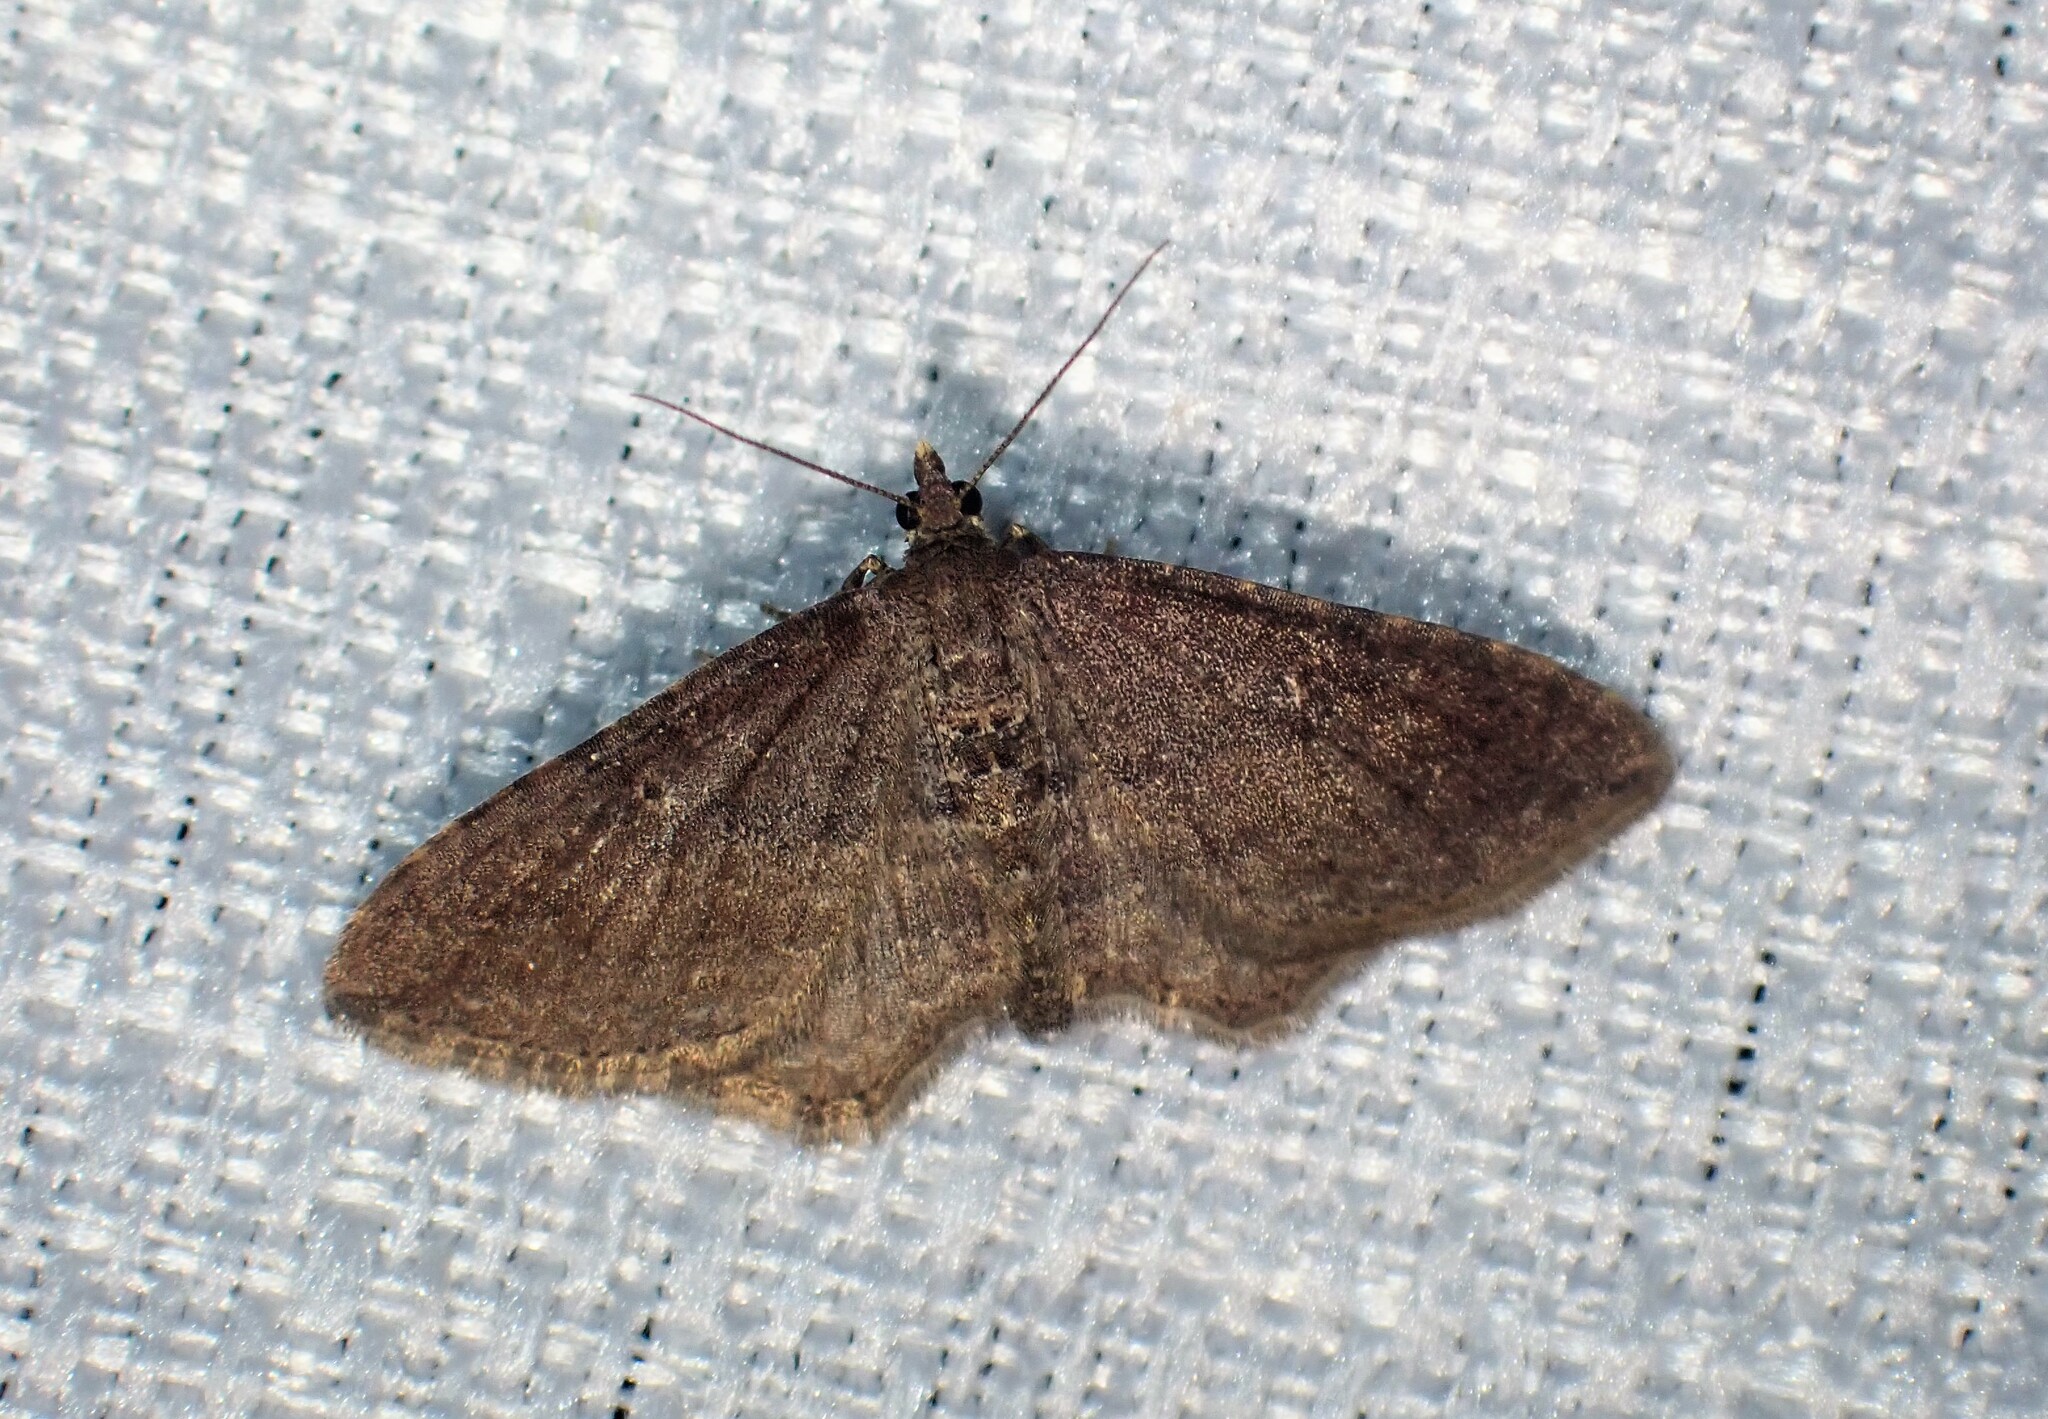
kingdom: Animalia
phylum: Arthropoda
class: Insecta
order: Lepidoptera
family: Geometridae
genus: Orthonama
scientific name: Orthonama obstipata
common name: The gem
